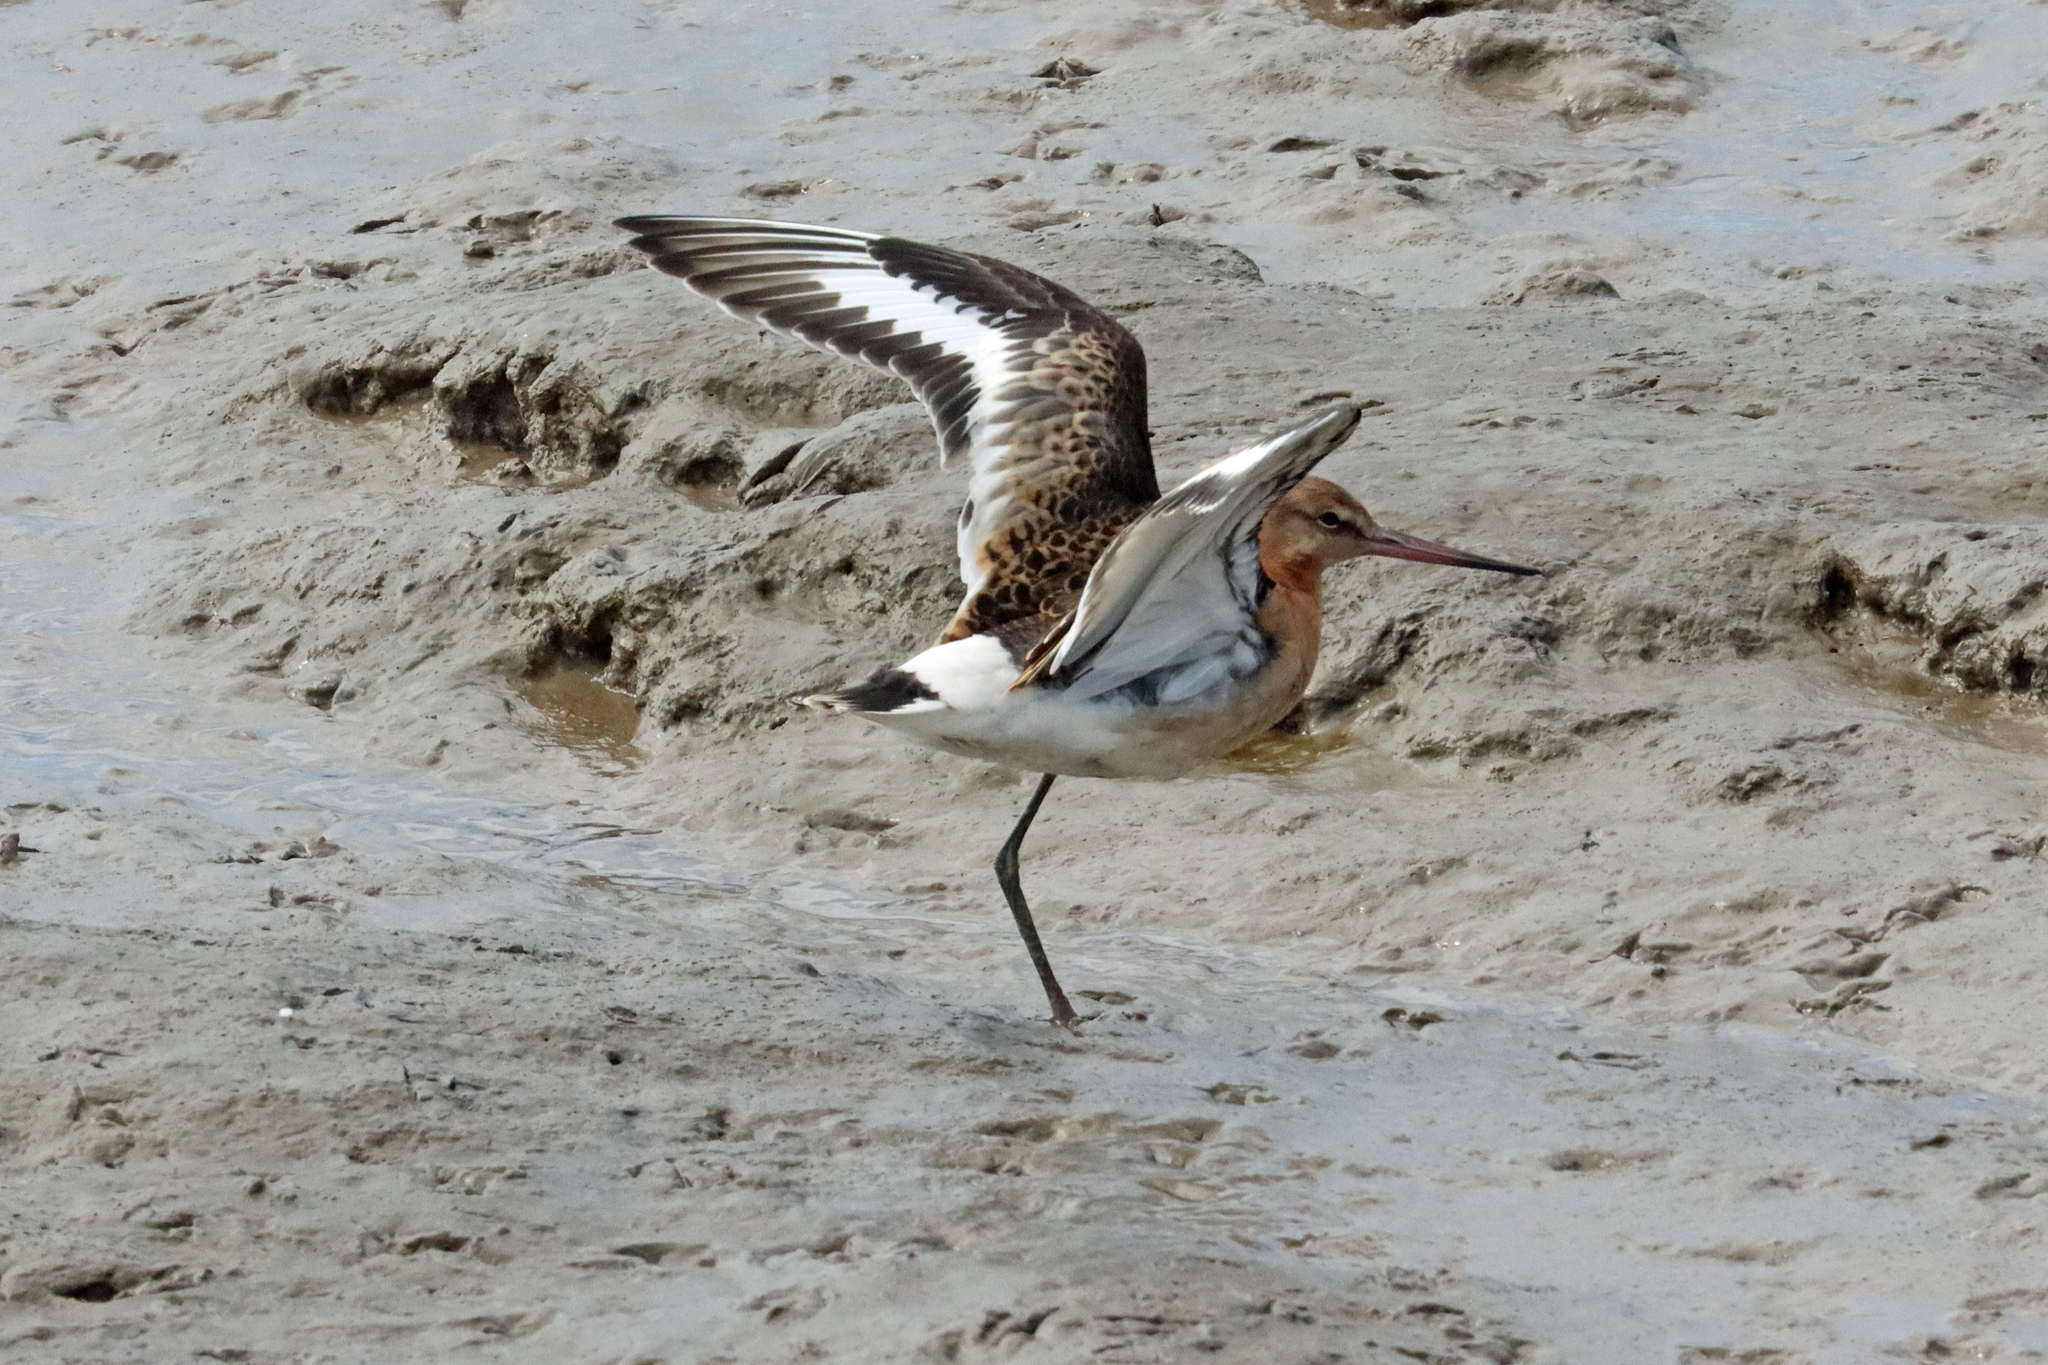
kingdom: Animalia
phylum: Chordata
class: Aves
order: Charadriiformes
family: Scolopacidae
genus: Limosa
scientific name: Limosa limosa
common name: Black-tailed godwit
